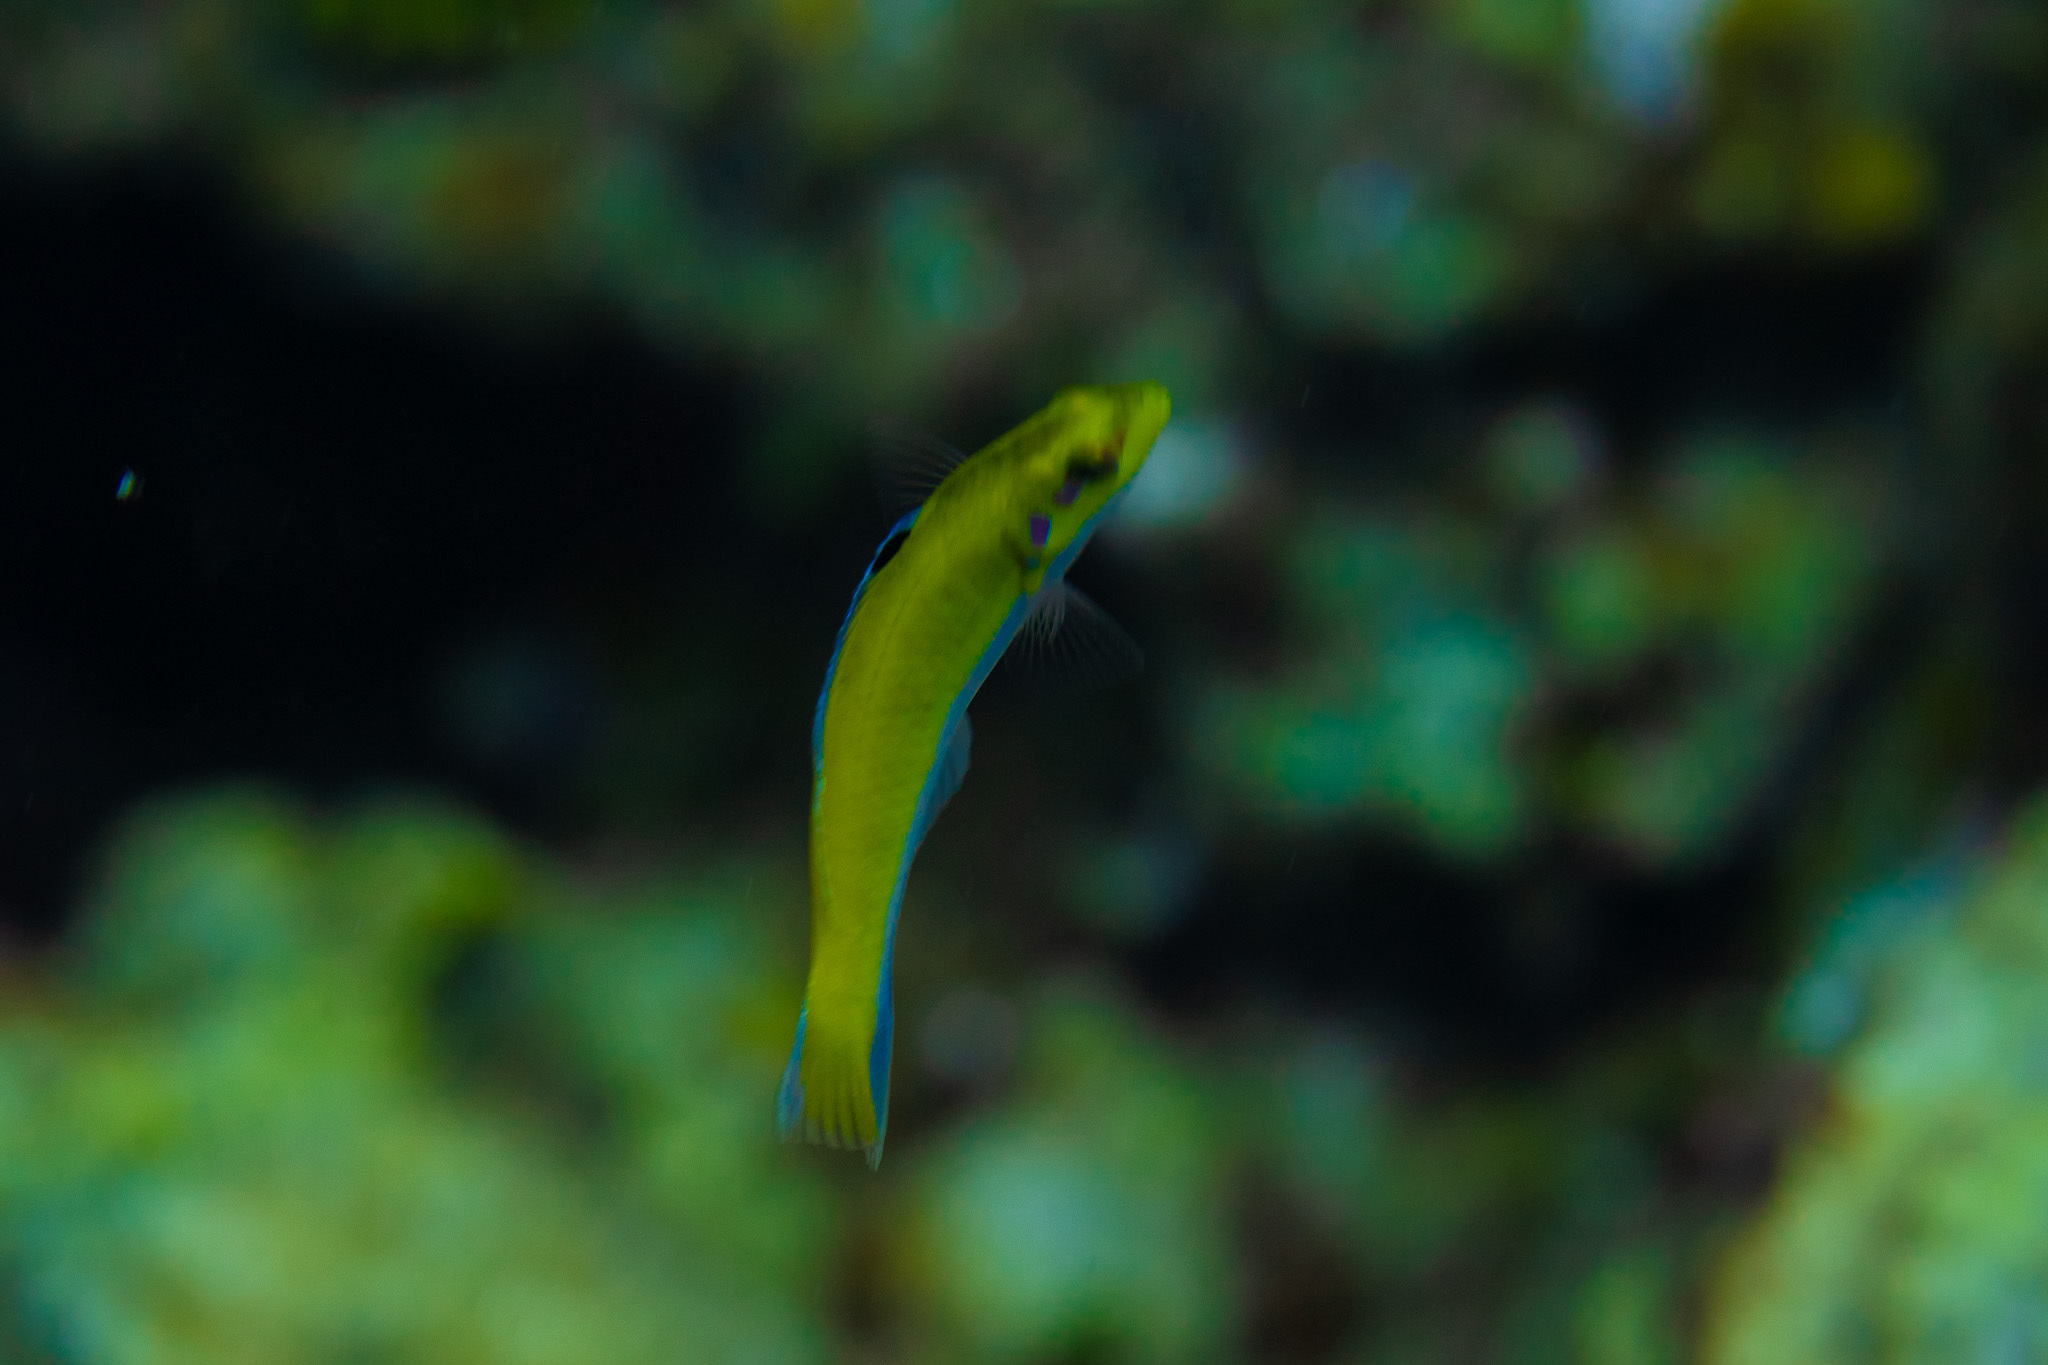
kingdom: Animalia
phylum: Chordata
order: Perciformes
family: Labridae
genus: Thalassoma
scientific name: Thalassoma bifasciatum
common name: Bluehead wrasse
